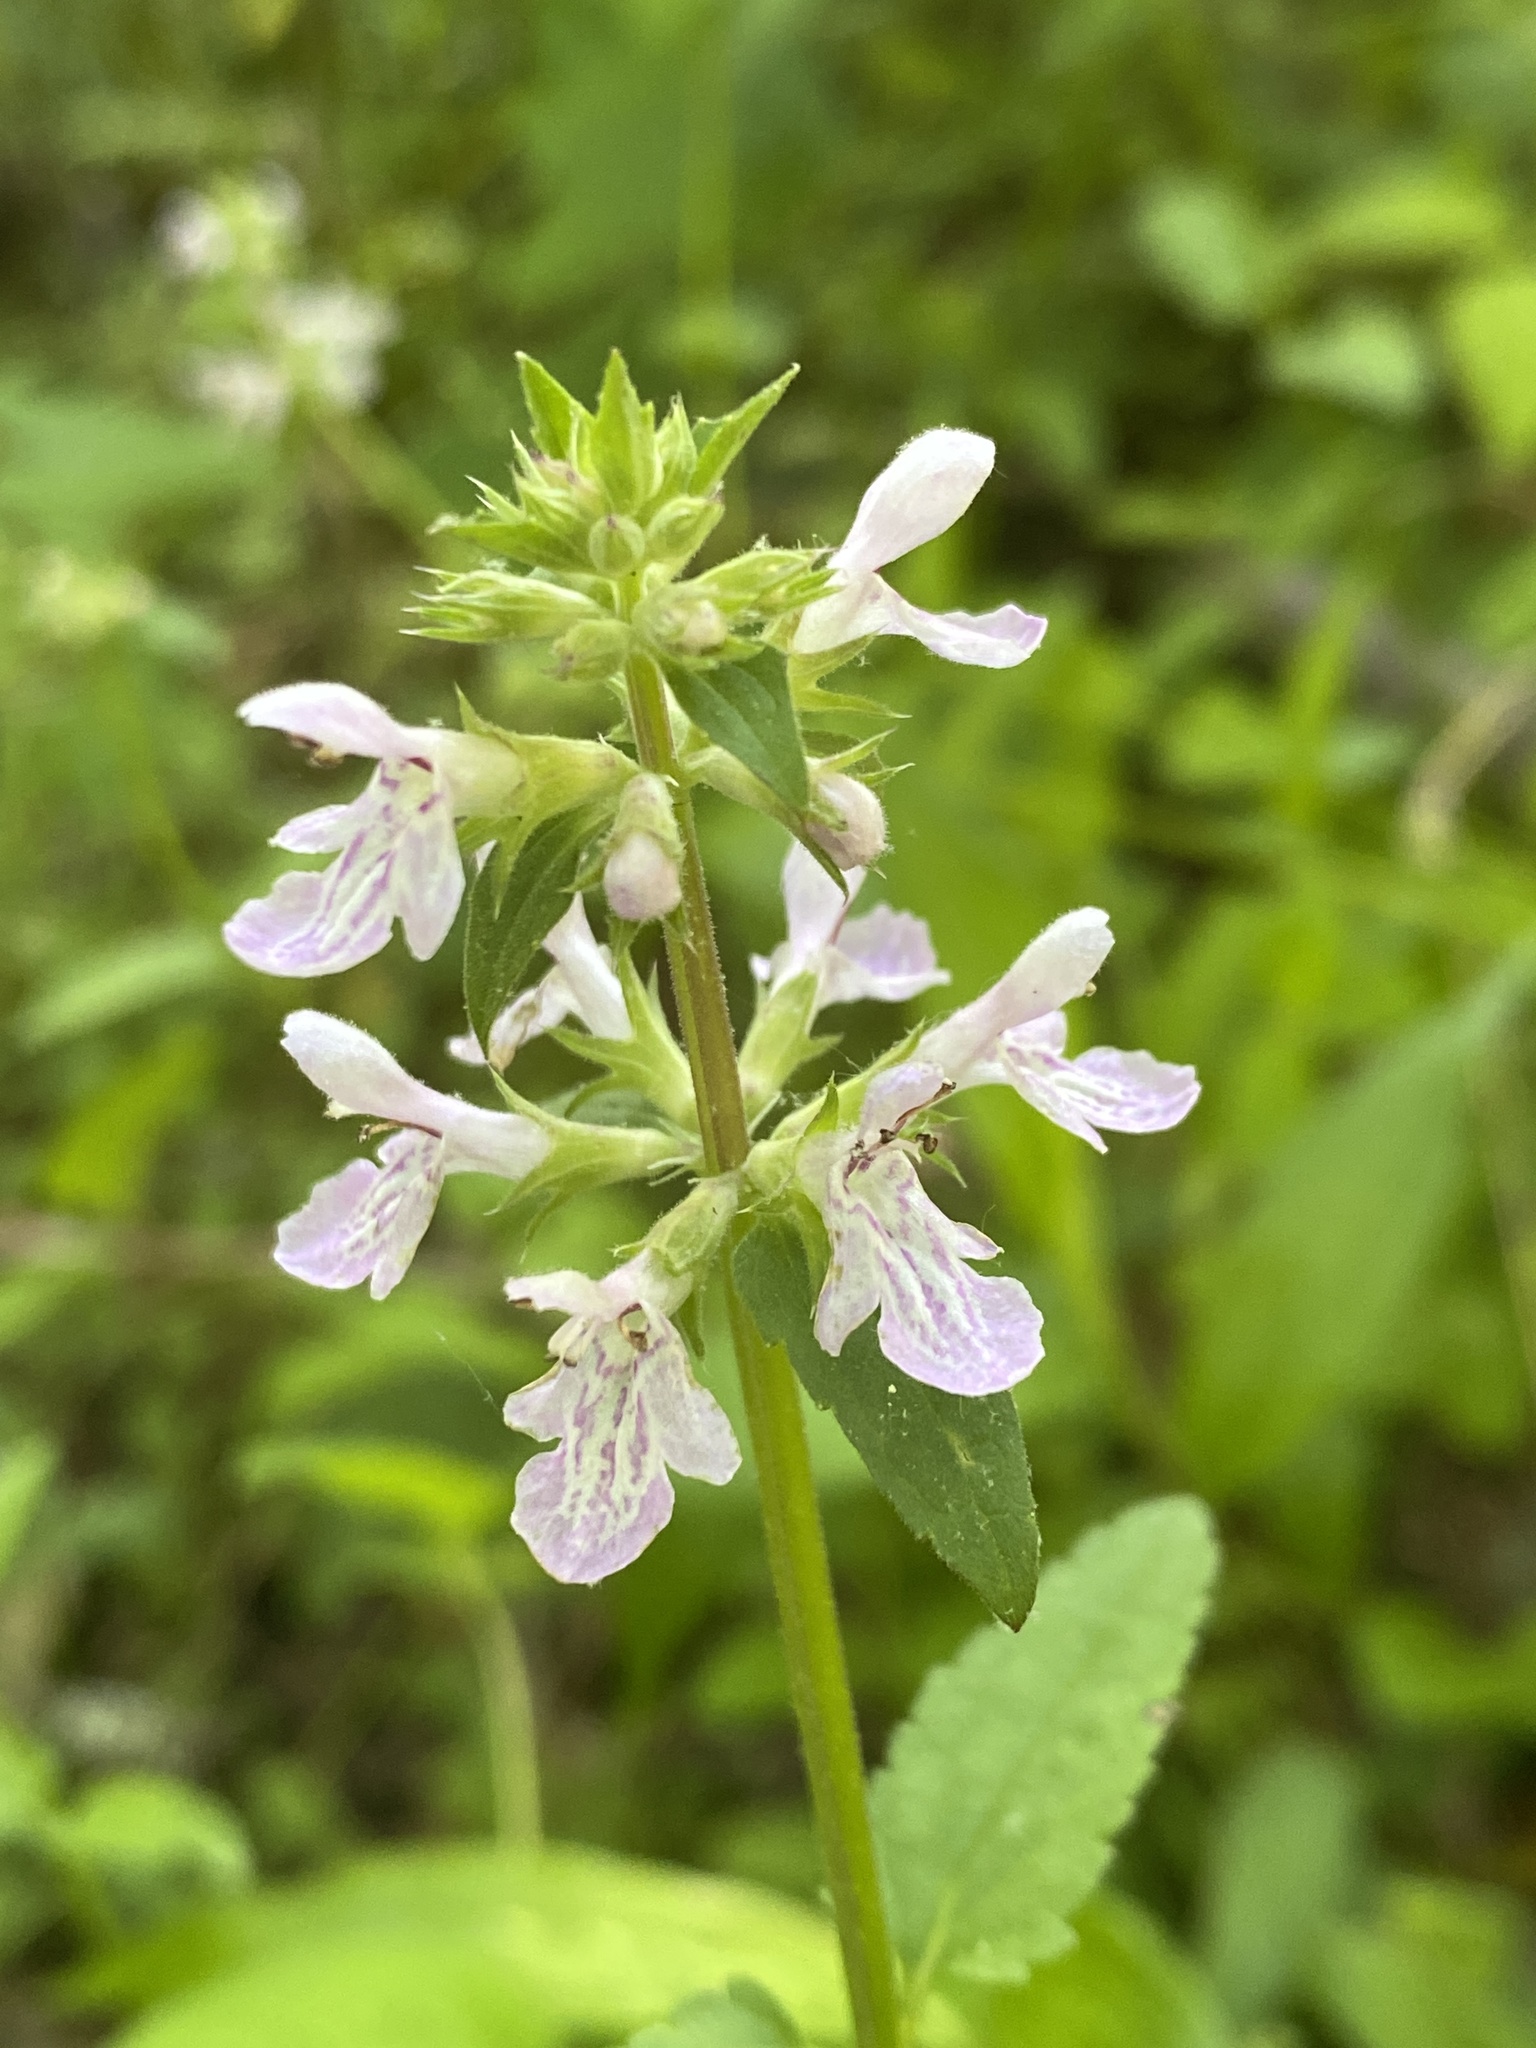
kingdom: Plantae
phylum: Tracheophyta
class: Magnoliopsida
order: Lamiales
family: Lamiaceae
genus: Stachys
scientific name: Stachys floridana
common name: Florida betony
